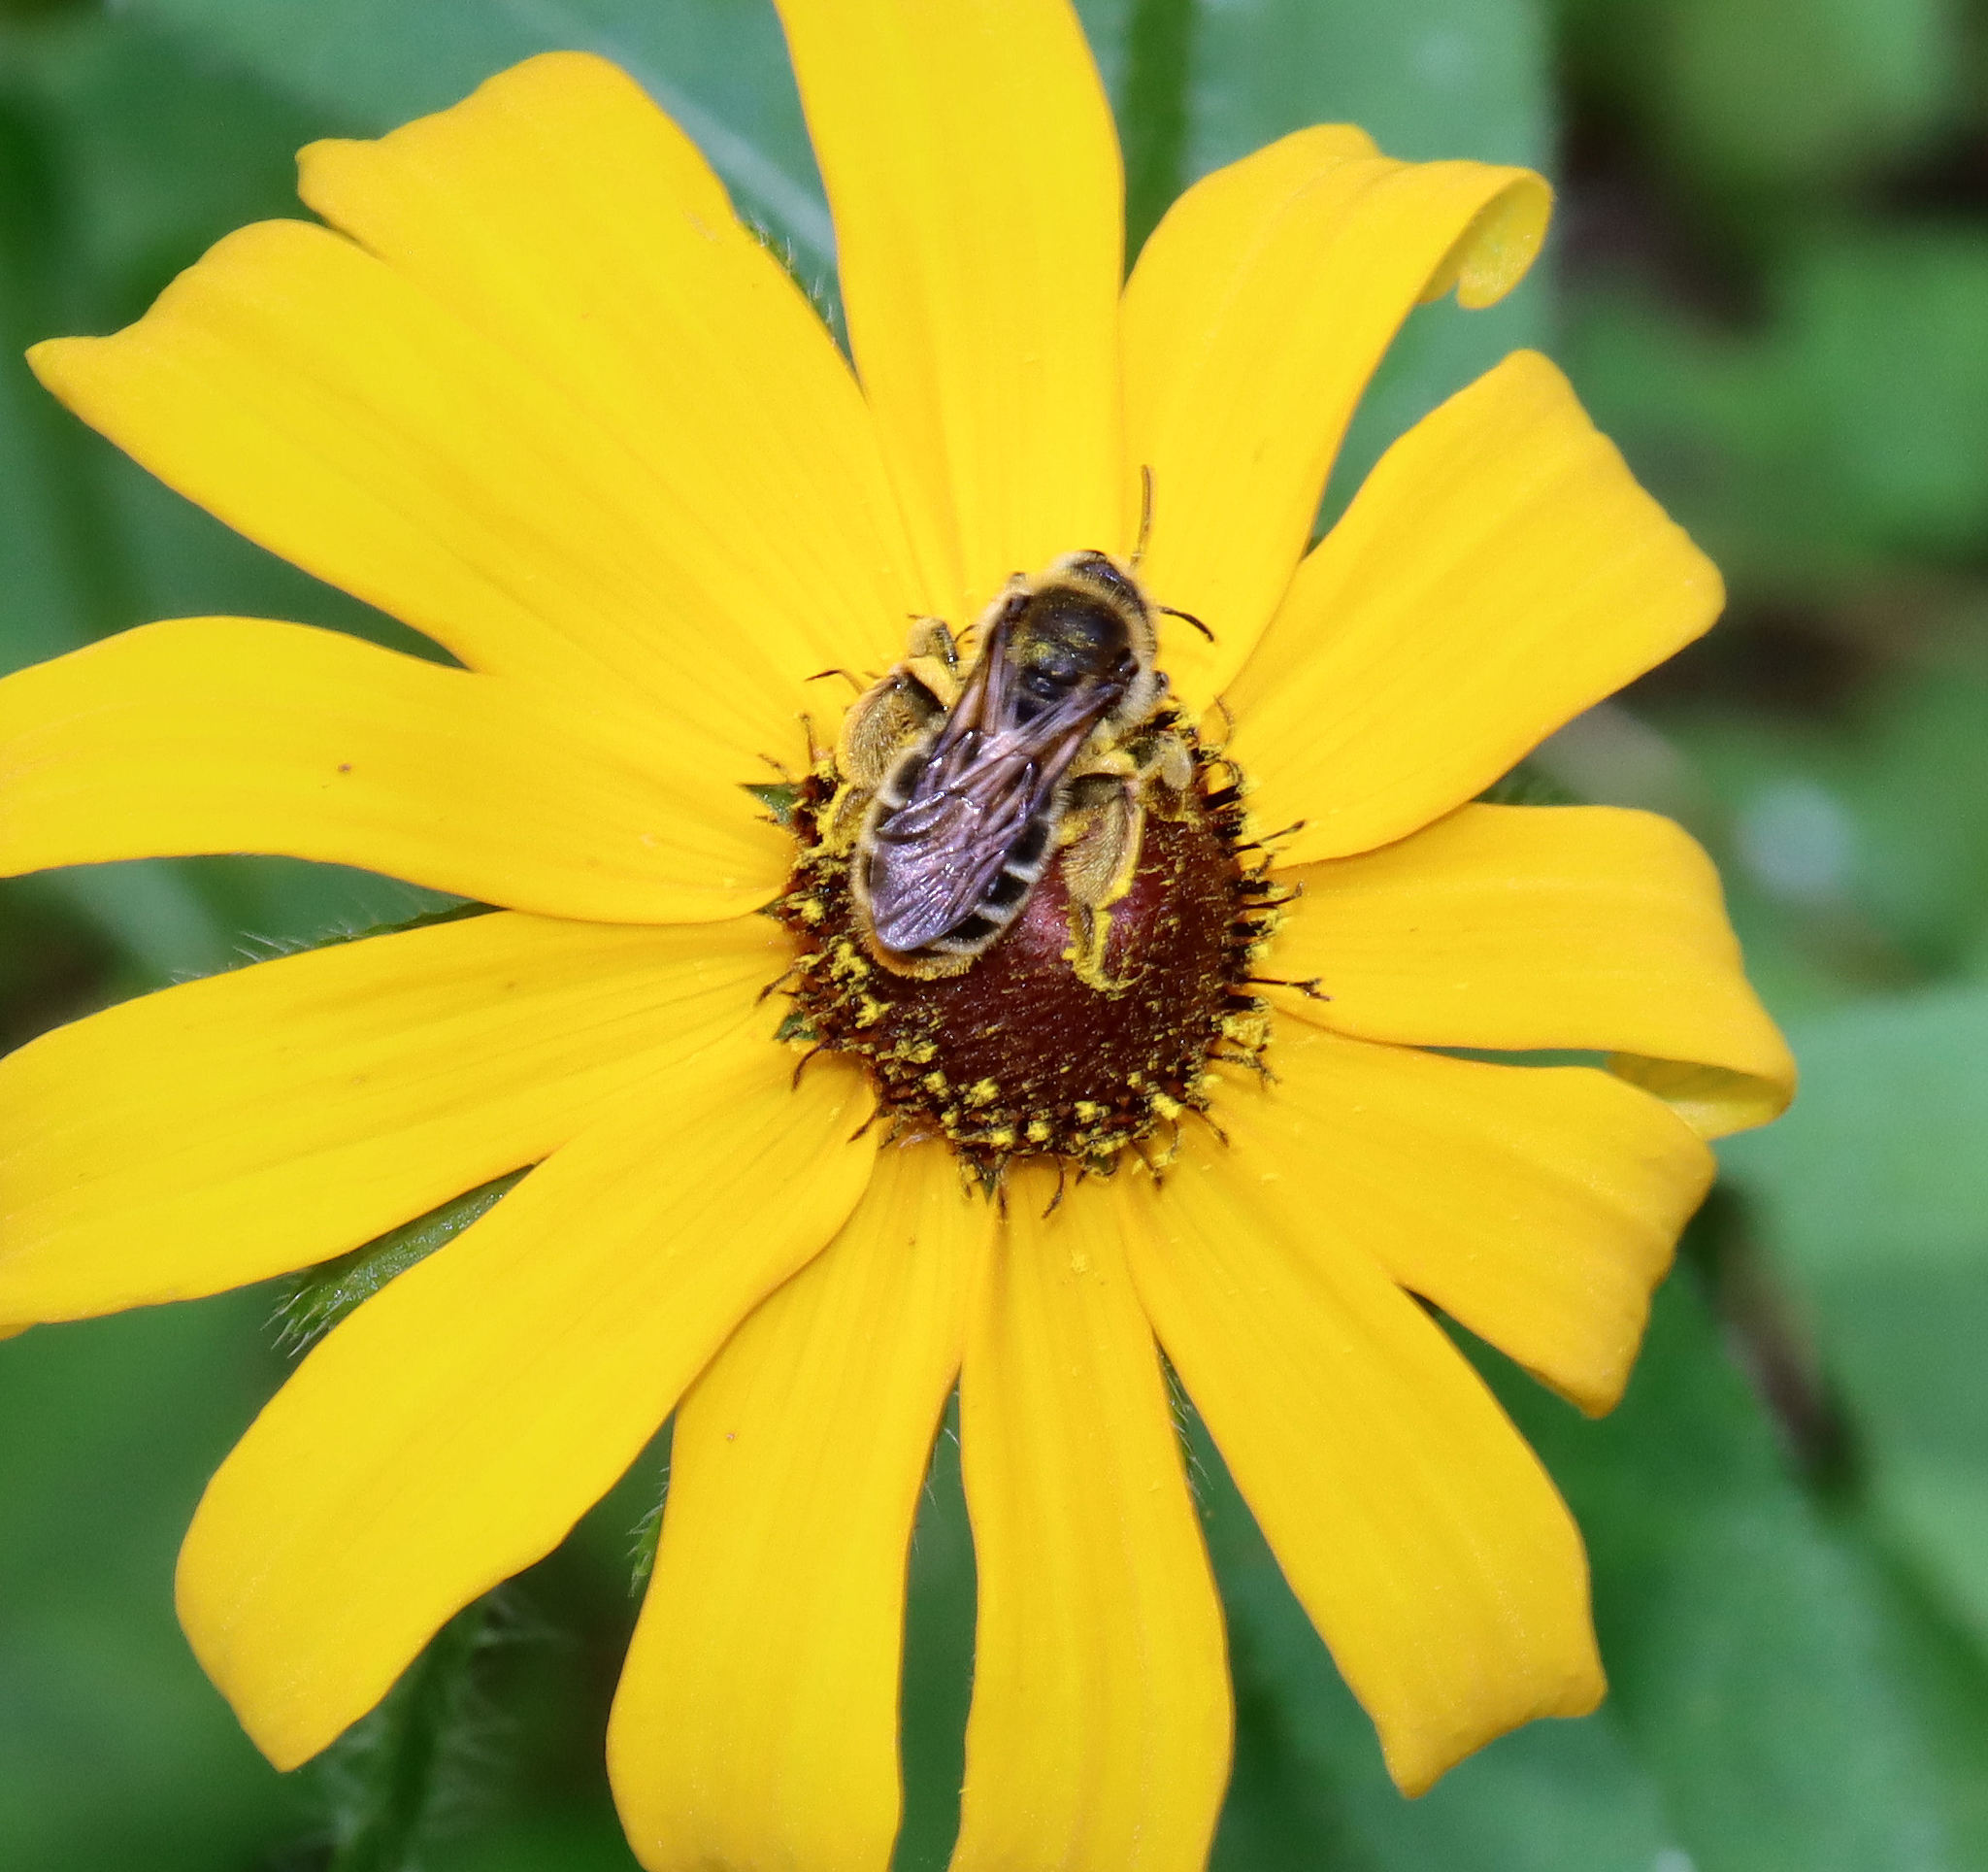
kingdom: Animalia
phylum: Arthropoda
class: Insecta
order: Hymenoptera
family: Andrenidae
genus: Andrena
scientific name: Andrena rudbeckiae
